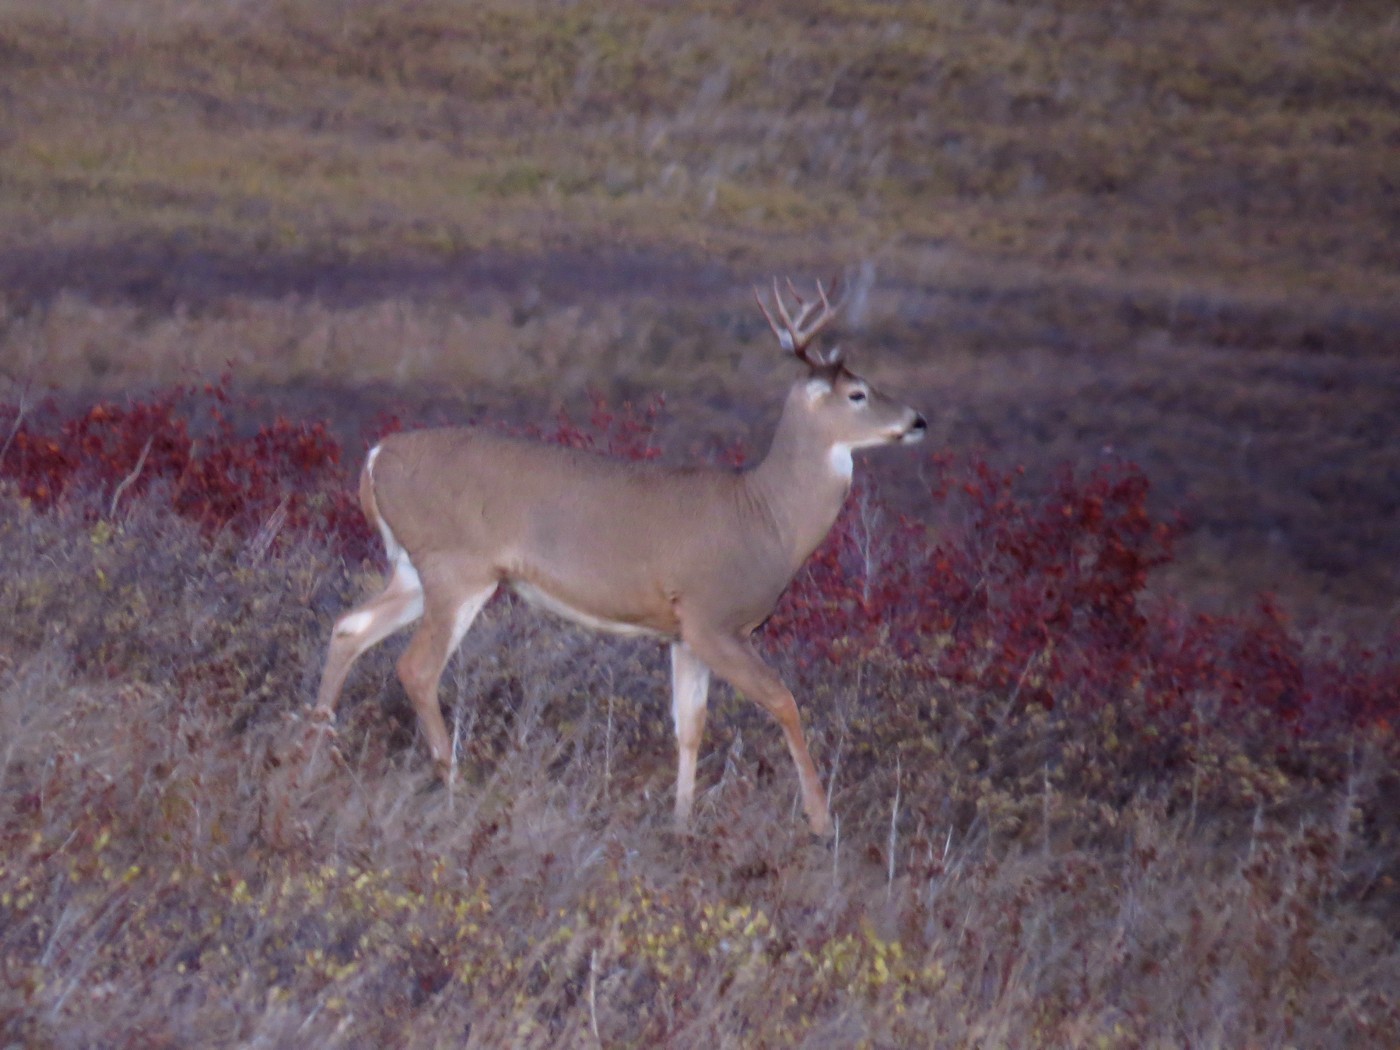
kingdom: Animalia
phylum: Chordata
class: Mammalia
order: Artiodactyla
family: Cervidae
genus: Odocoileus
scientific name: Odocoileus virginianus
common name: White-tailed deer
